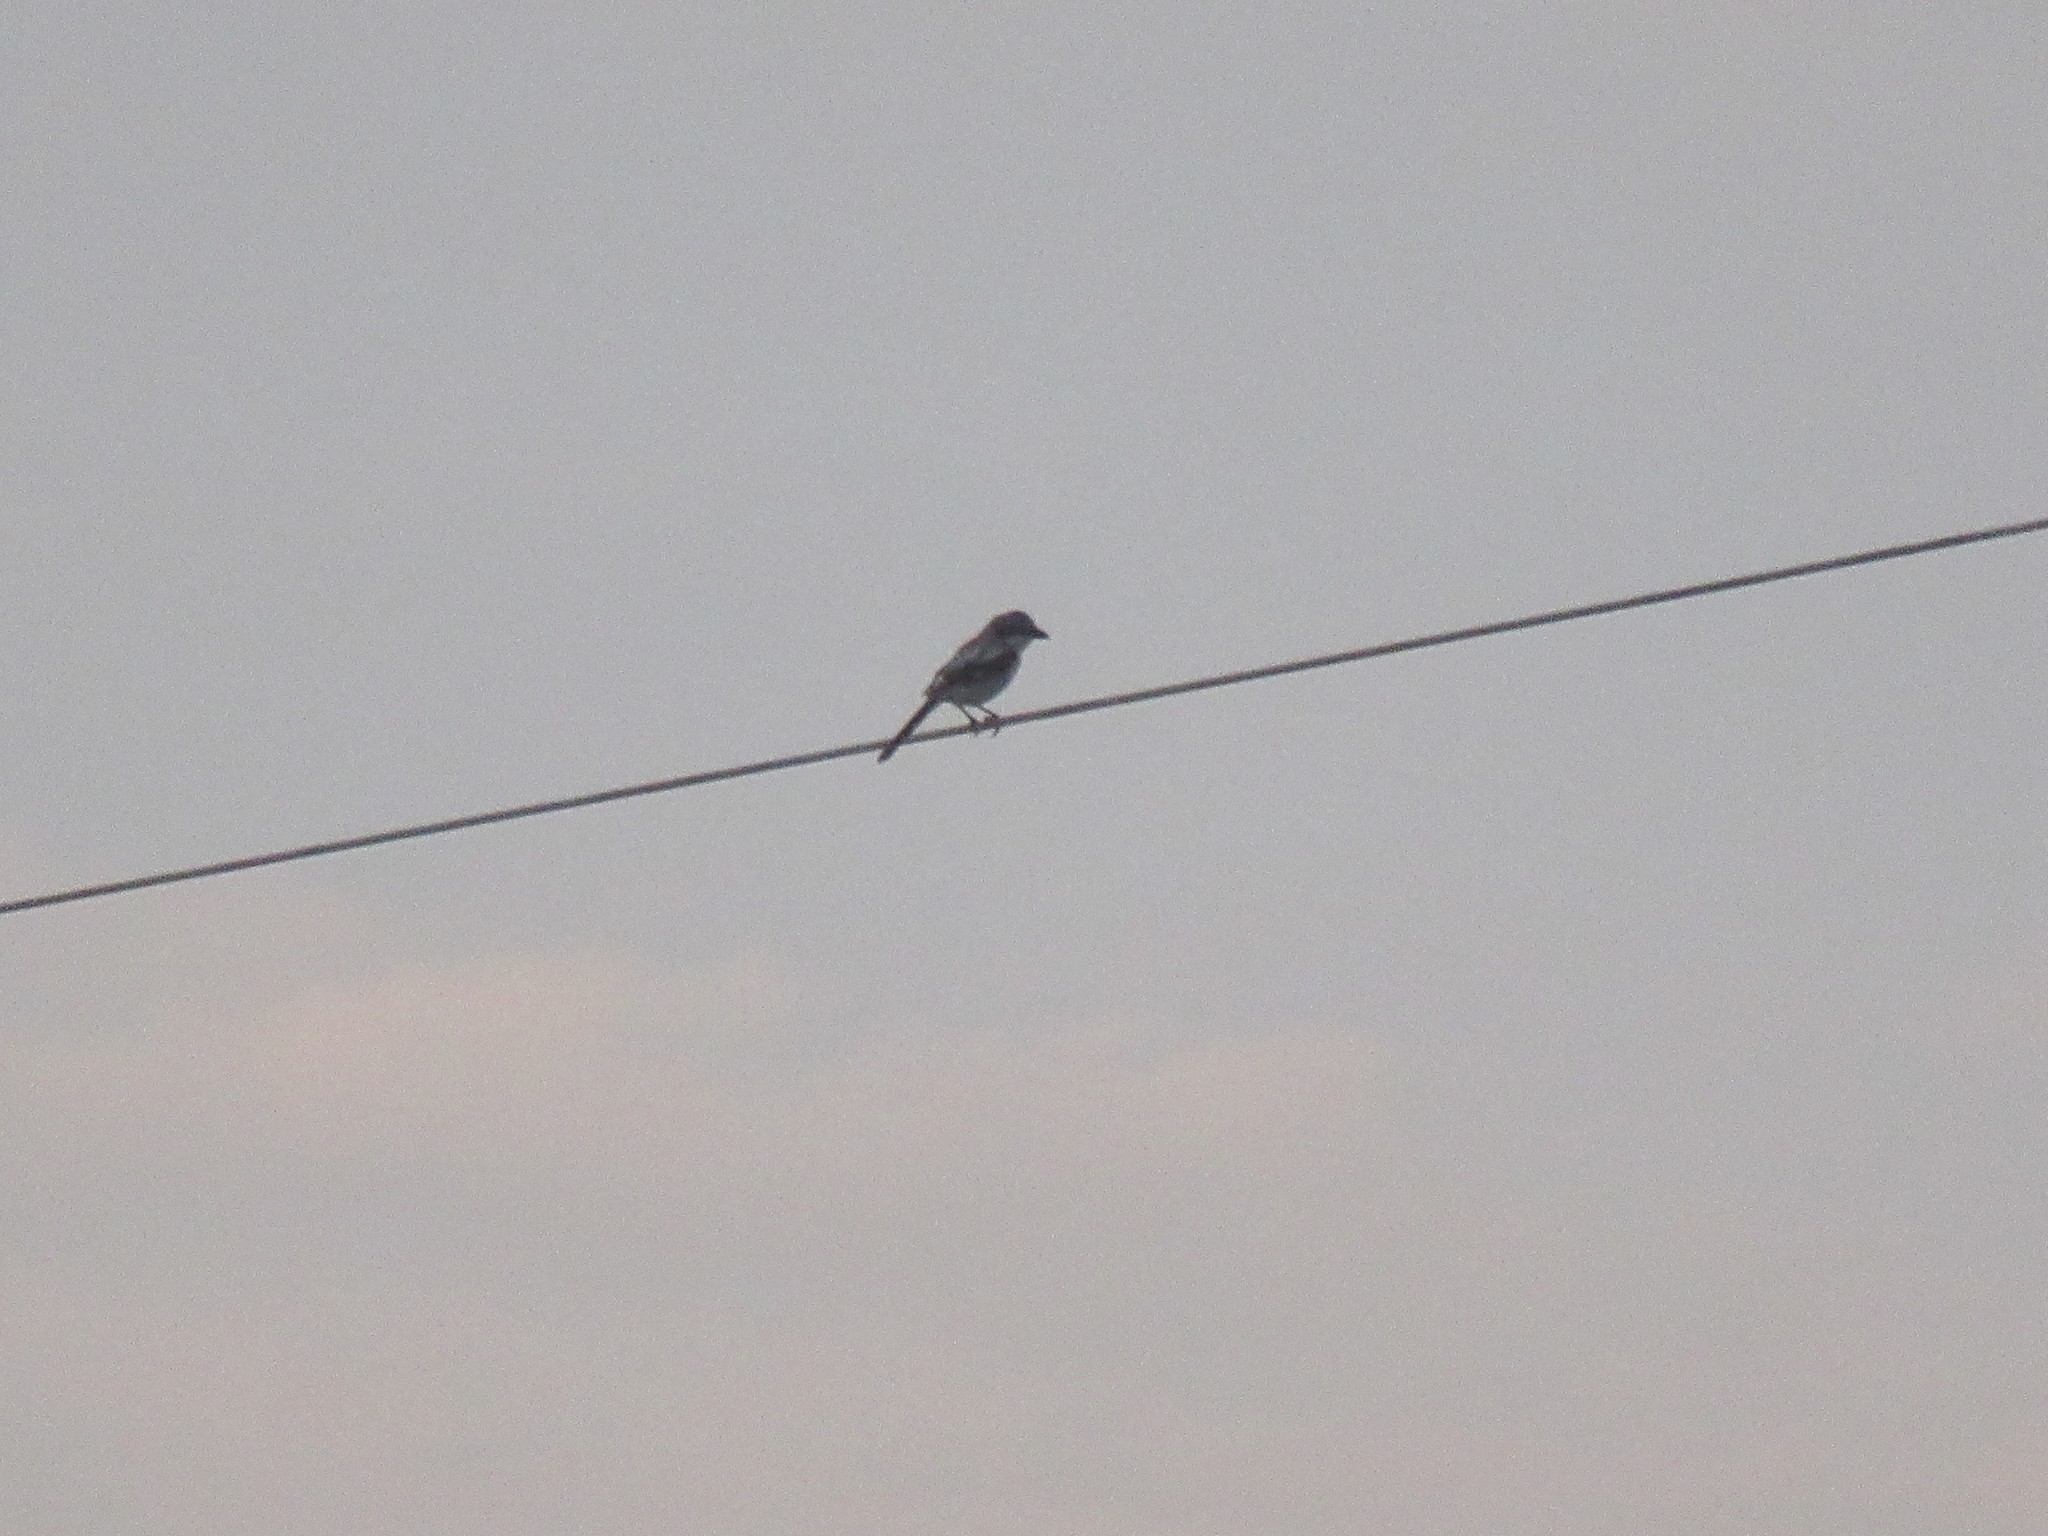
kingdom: Animalia
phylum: Chordata
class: Aves
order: Passeriformes
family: Laniidae
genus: Lanius
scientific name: Lanius ludovicianus
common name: Loggerhead shrike
